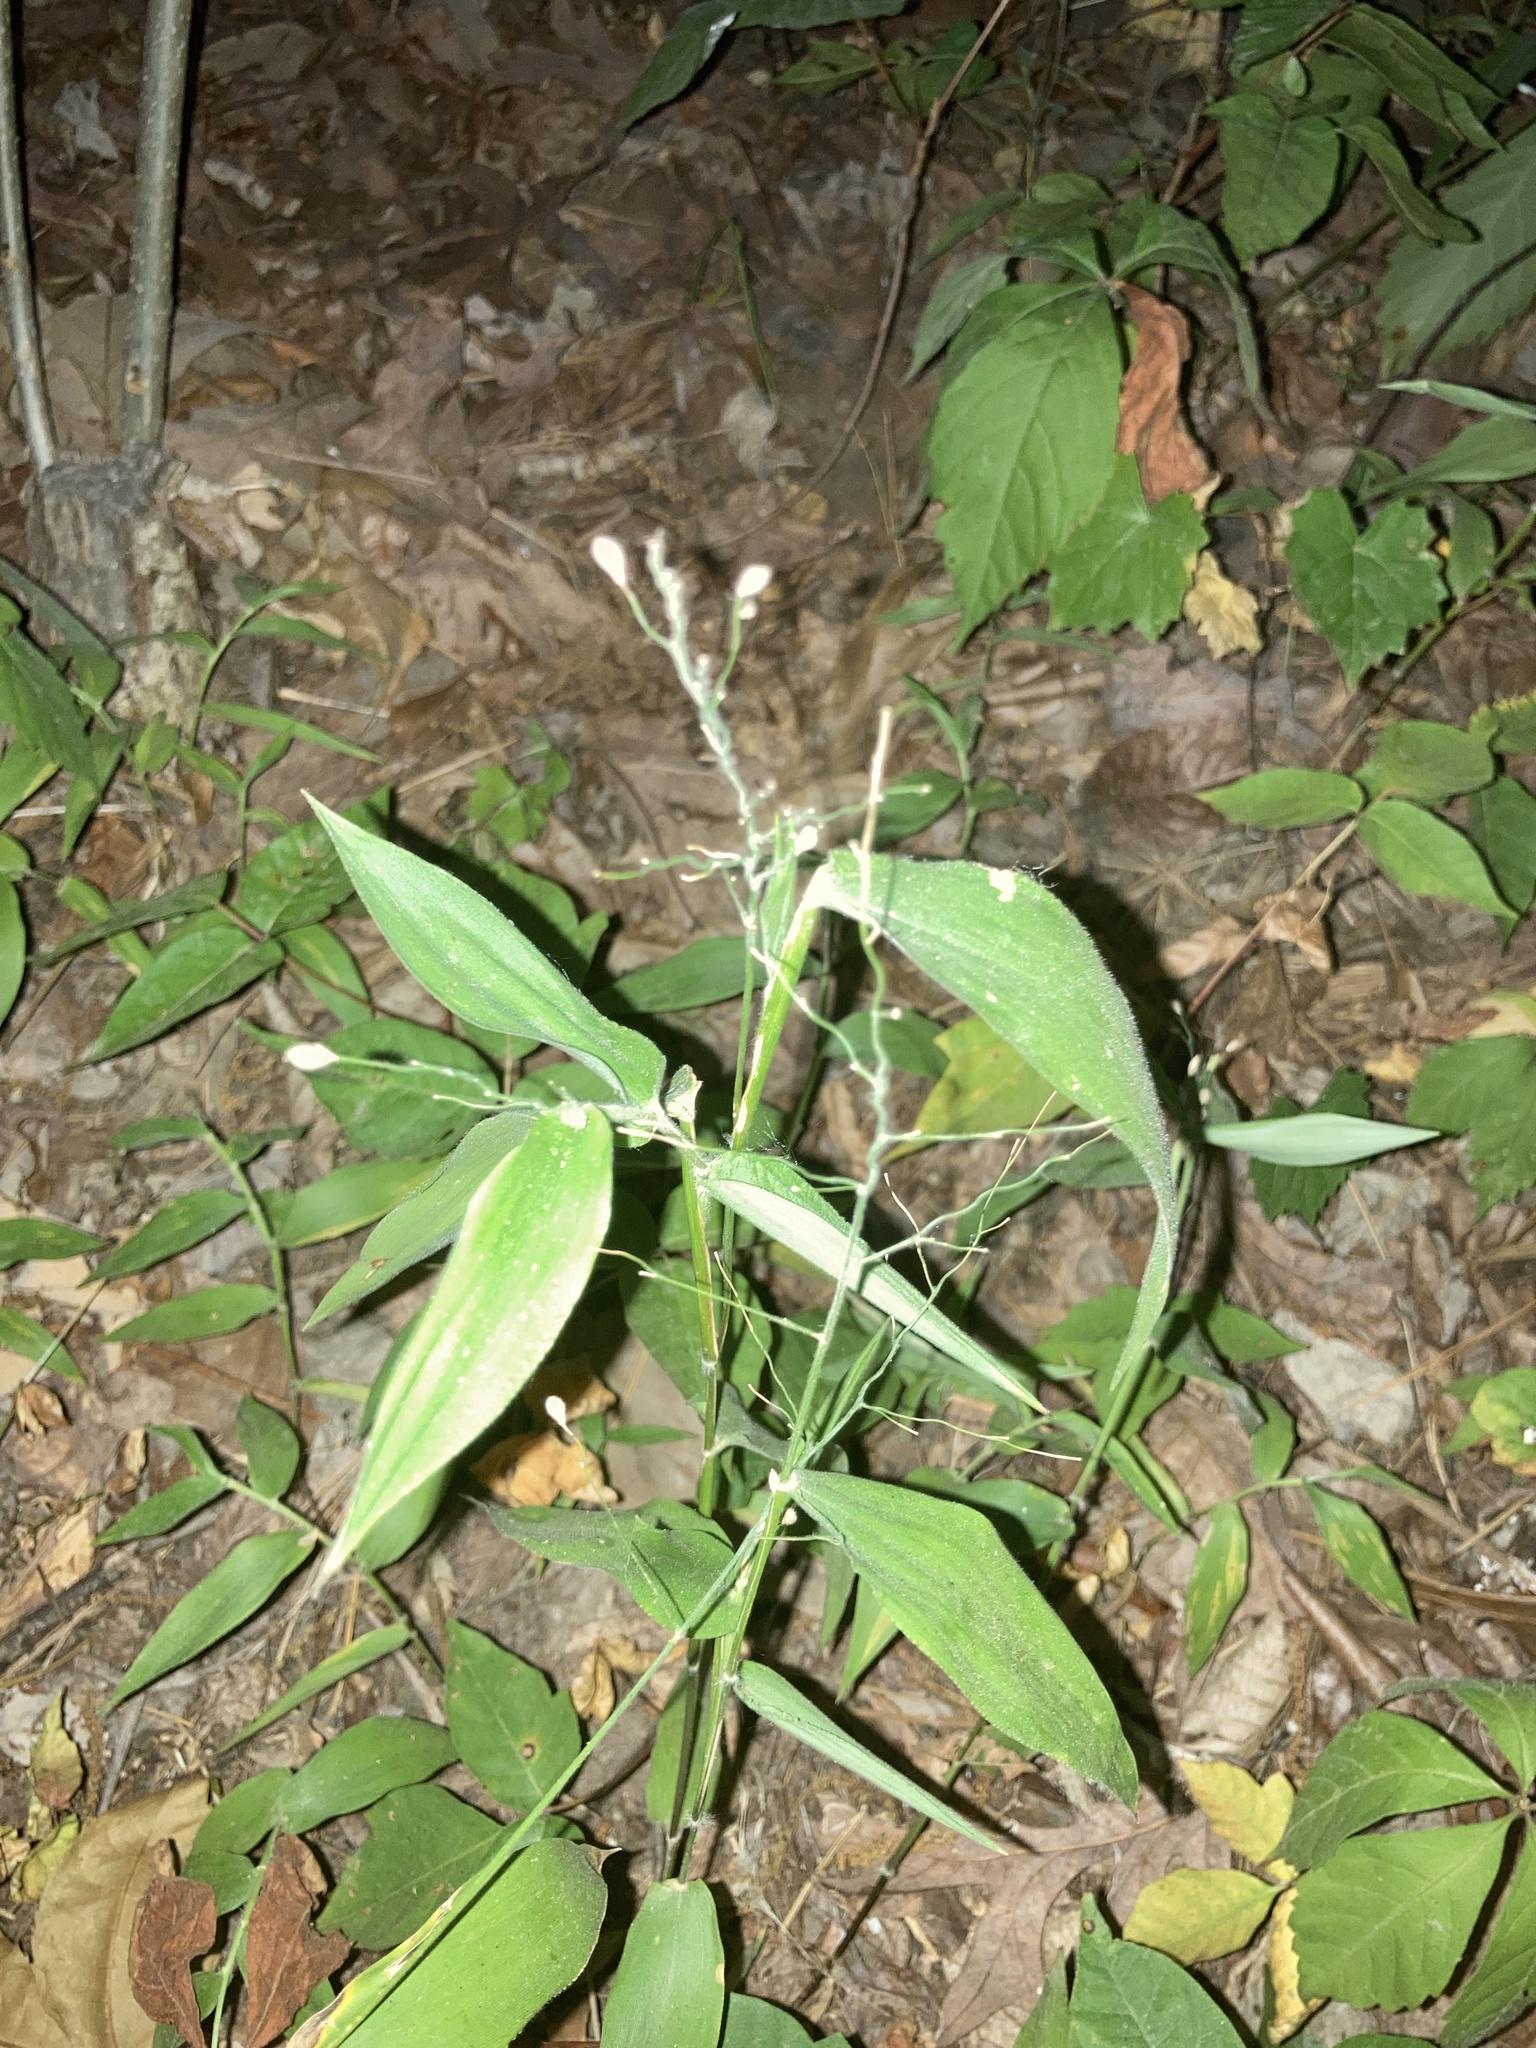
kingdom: Plantae
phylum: Tracheophyta
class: Liliopsida
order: Poales
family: Poaceae
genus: Dichanthelium
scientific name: Dichanthelium boscii
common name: Bosc's panic grass
